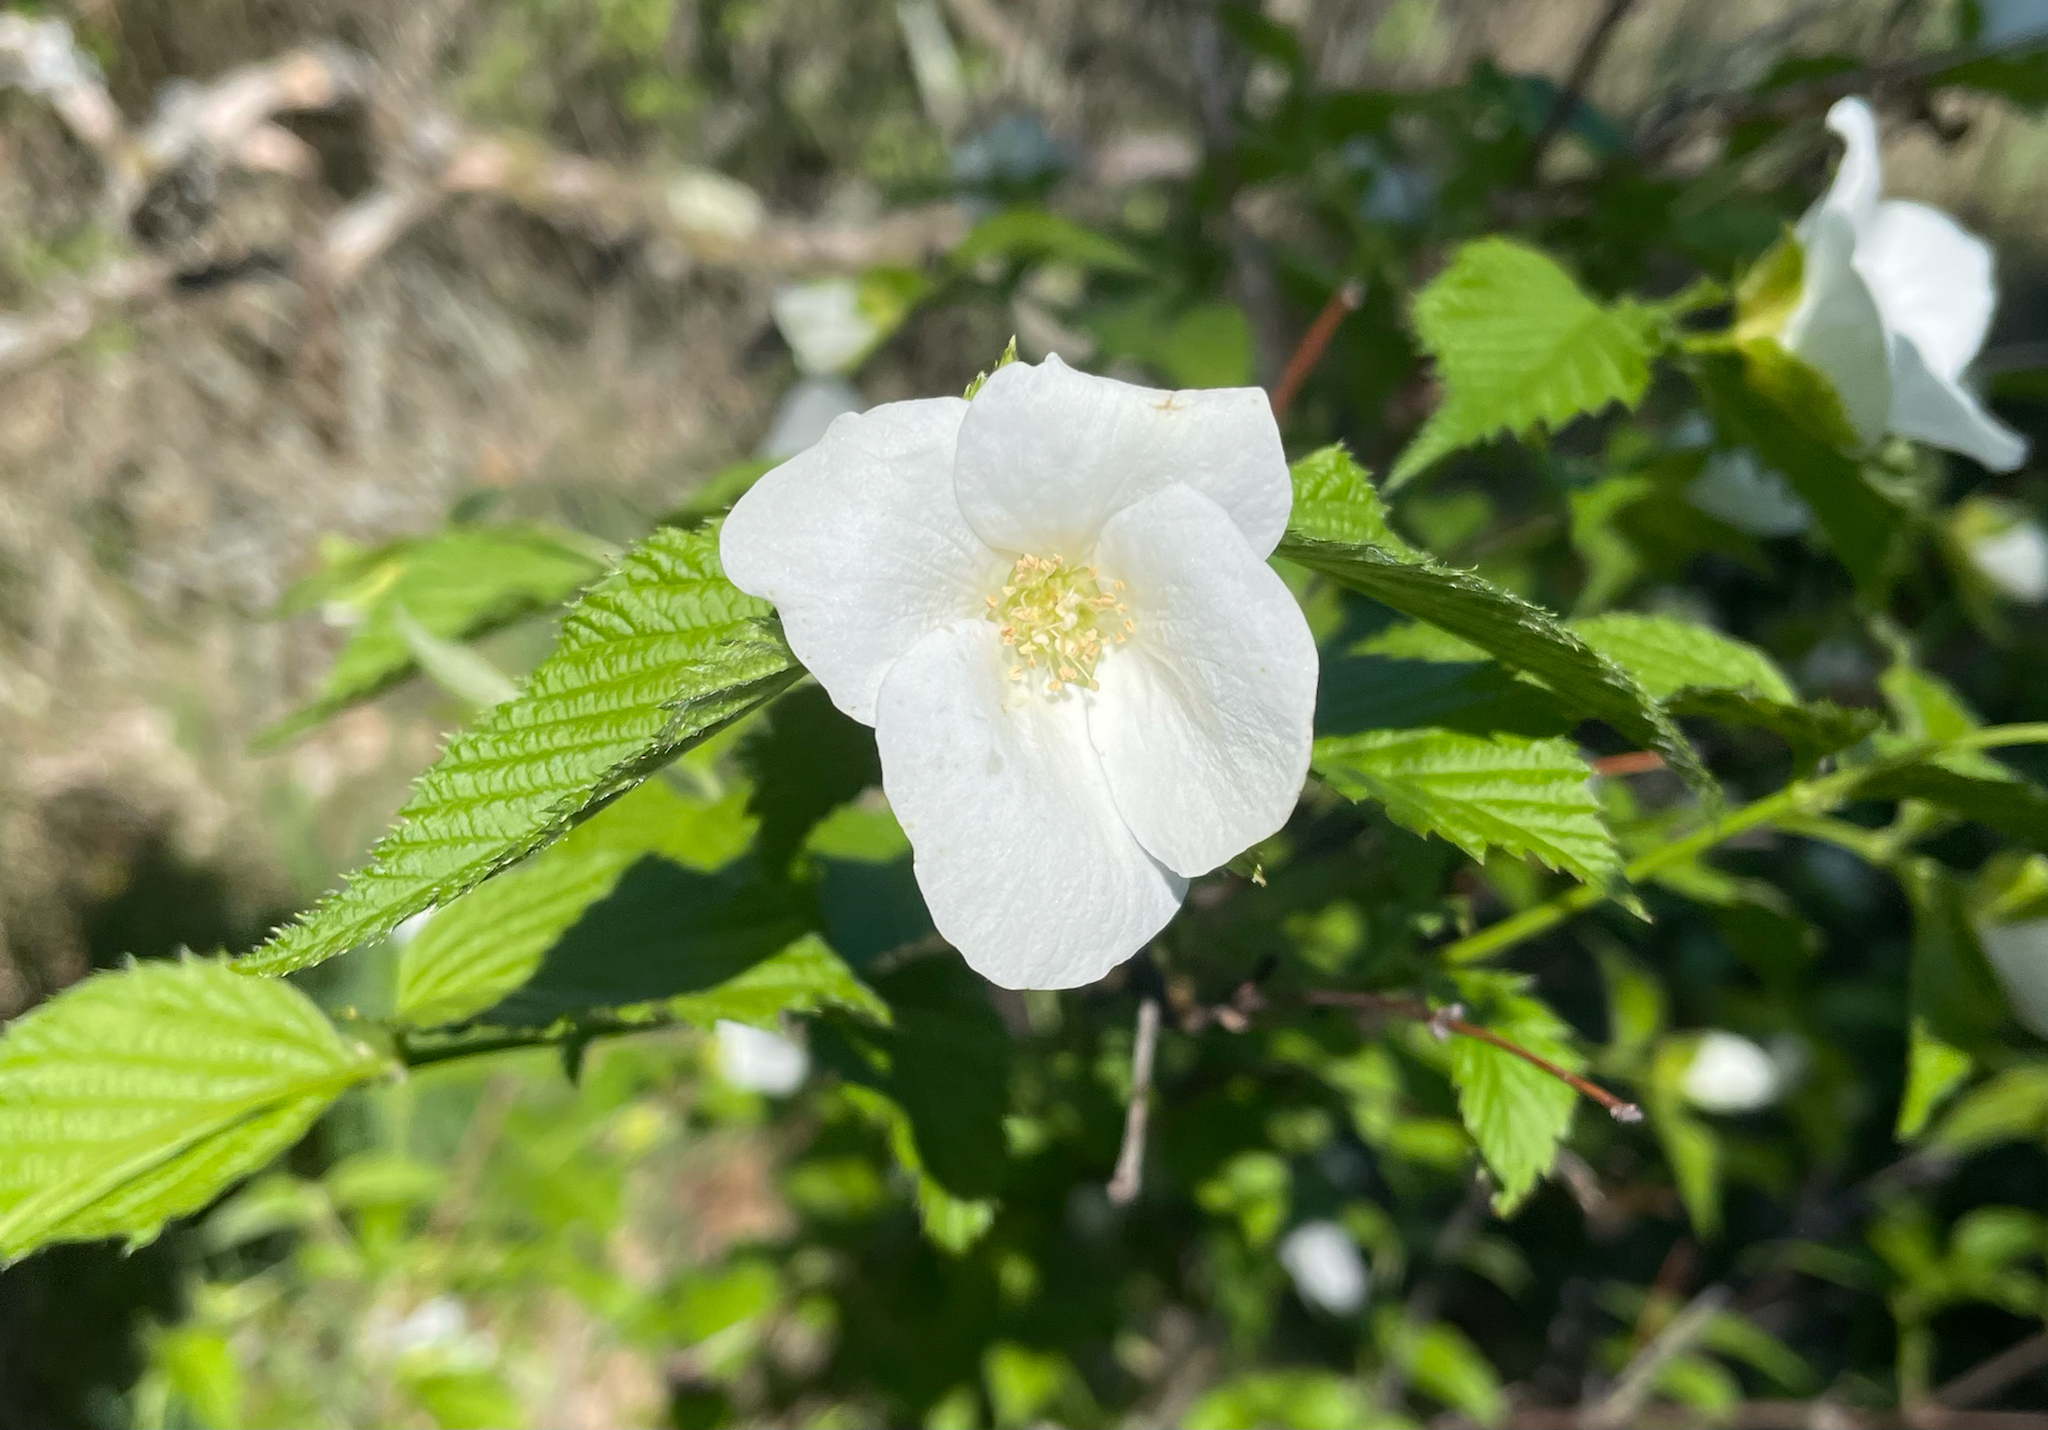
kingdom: Plantae
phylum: Tracheophyta
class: Magnoliopsida
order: Rosales
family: Rosaceae
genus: Rhodotypos
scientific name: Rhodotypos scandens
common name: Jetbead
